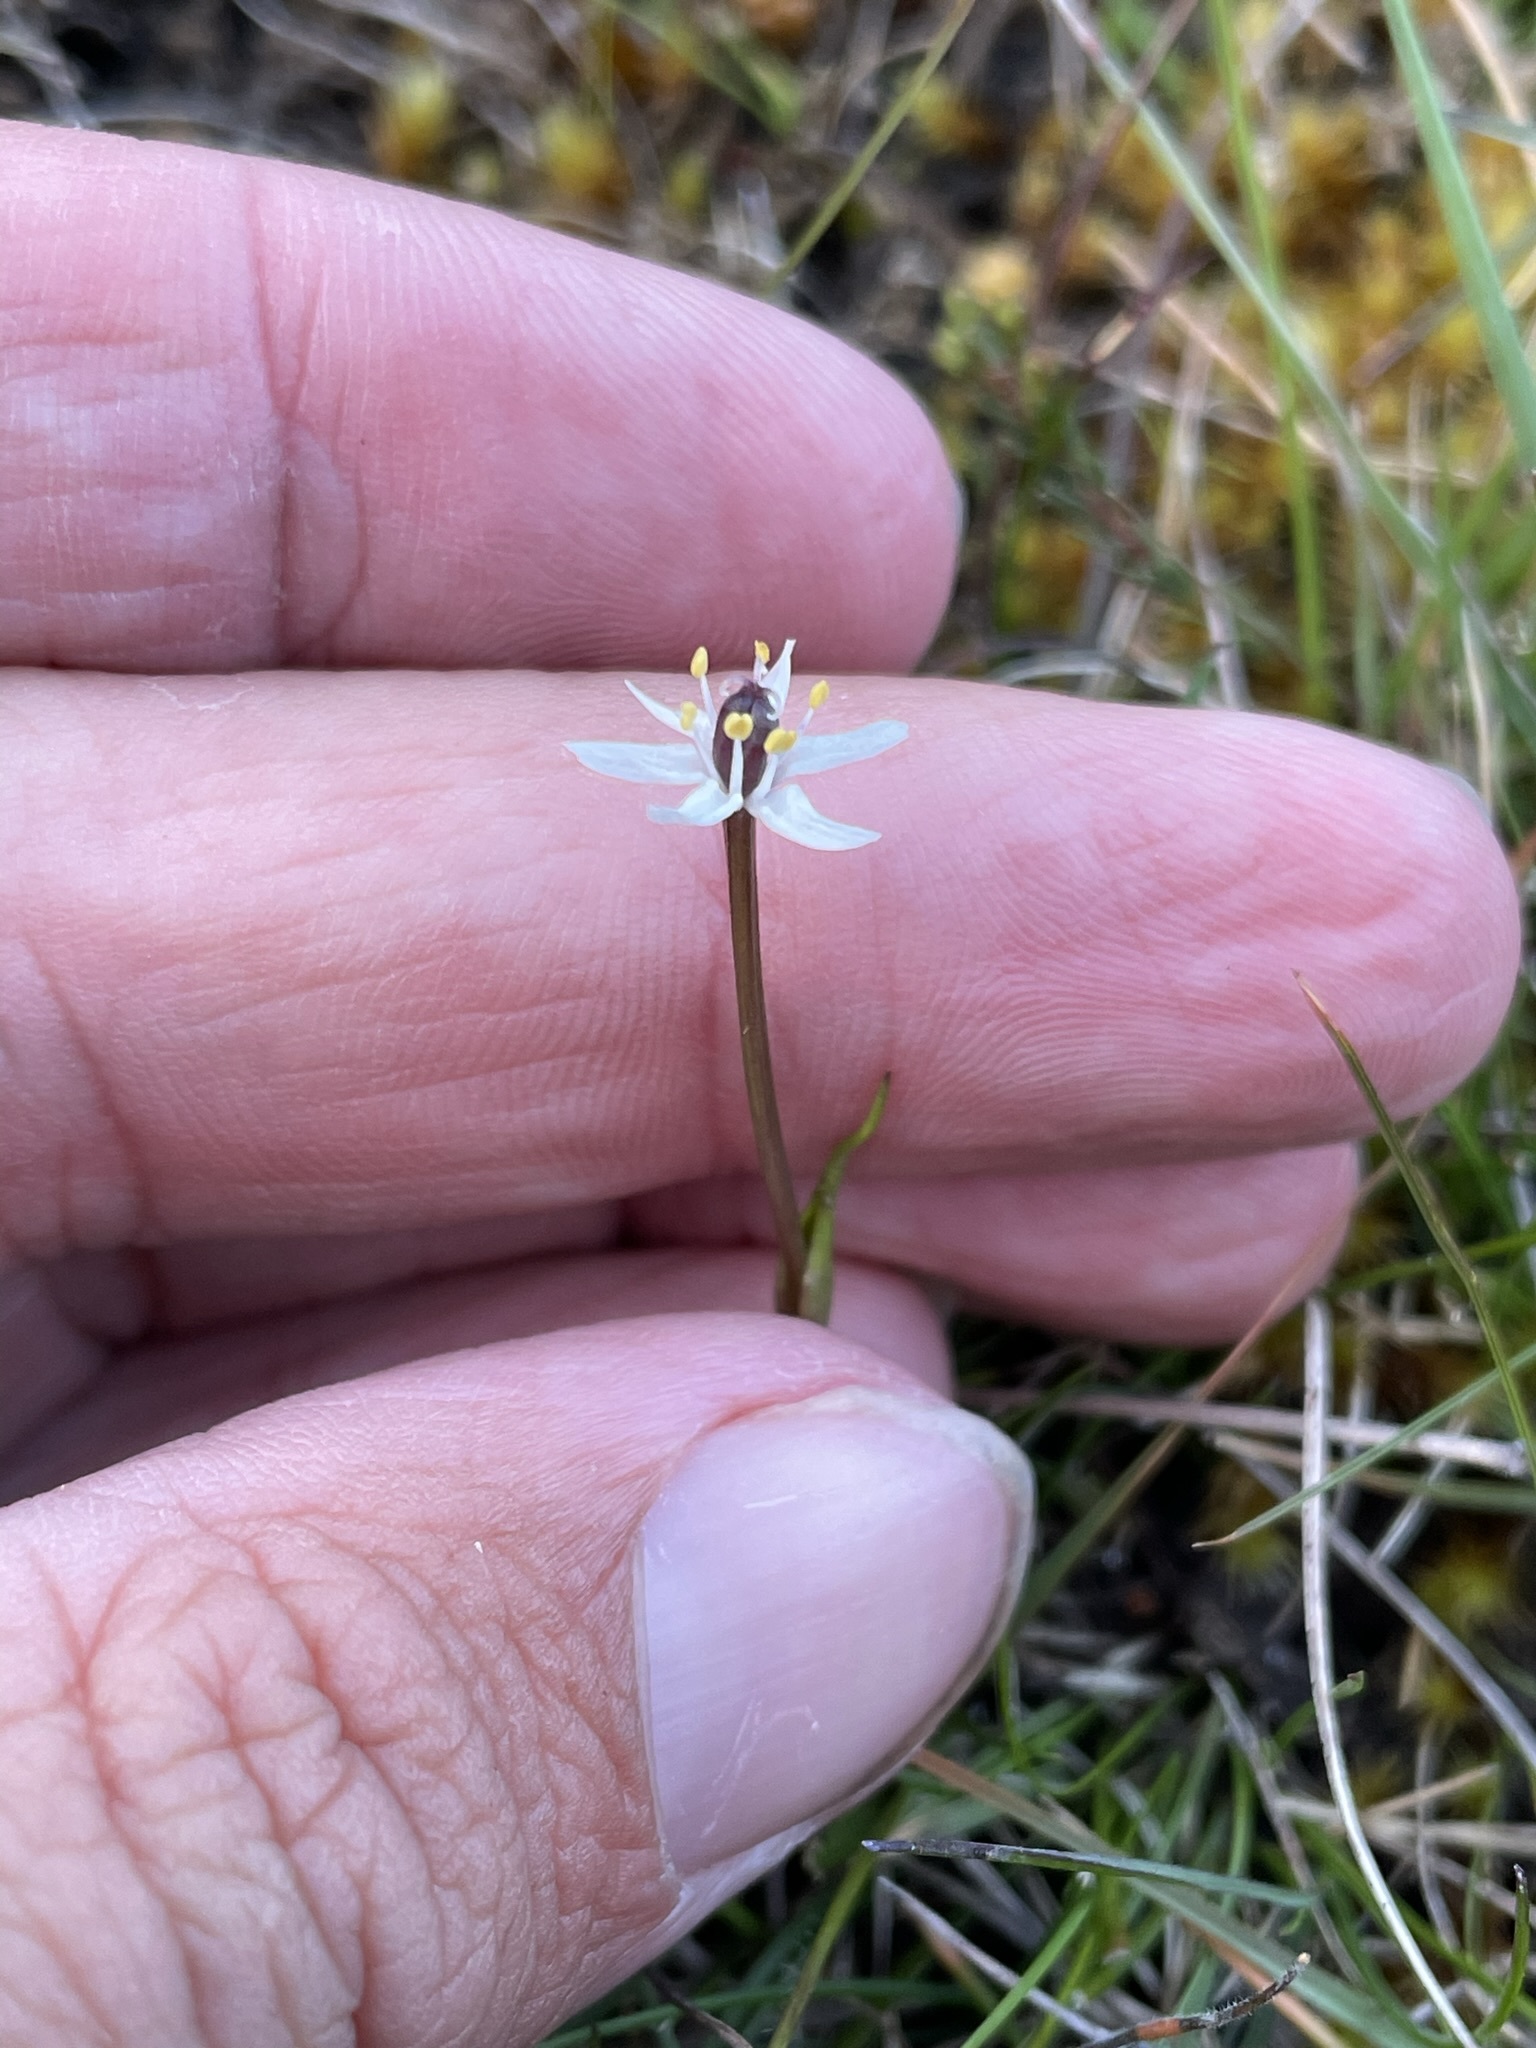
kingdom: Plantae
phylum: Tracheophyta
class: Liliopsida
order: Liliales
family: Colchicaceae
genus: Wurmbea
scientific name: Wurmbea uniflora
